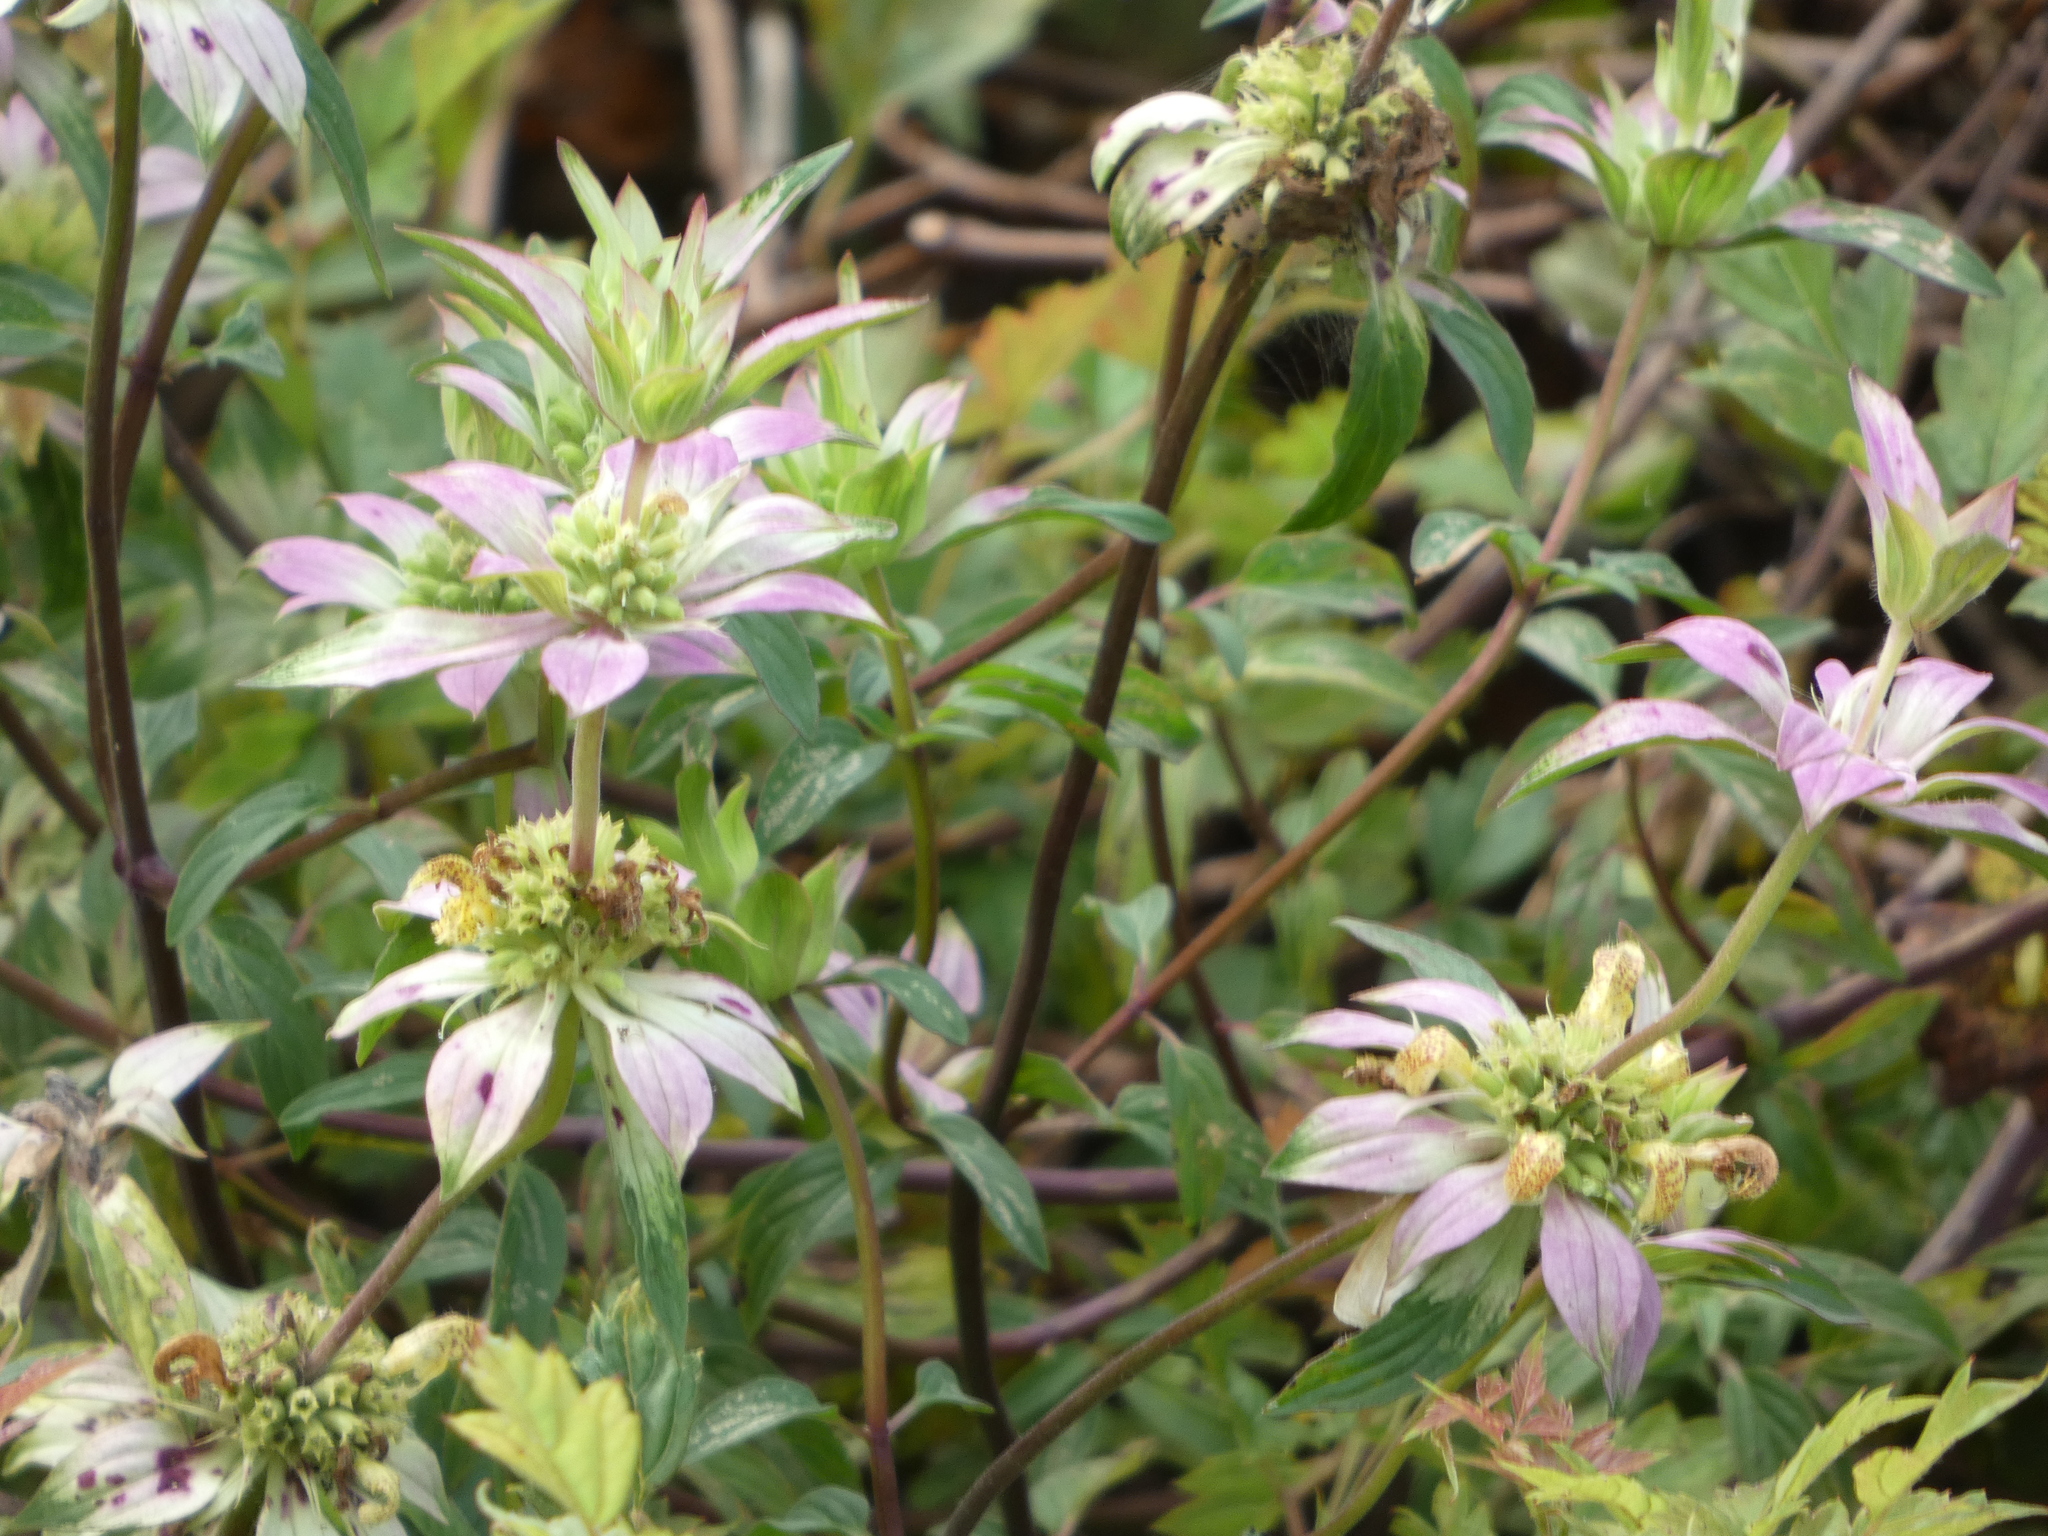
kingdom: Plantae
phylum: Tracheophyta
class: Magnoliopsida
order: Lamiales
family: Lamiaceae
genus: Monarda
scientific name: Monarda punctata
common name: Dotted monarda
